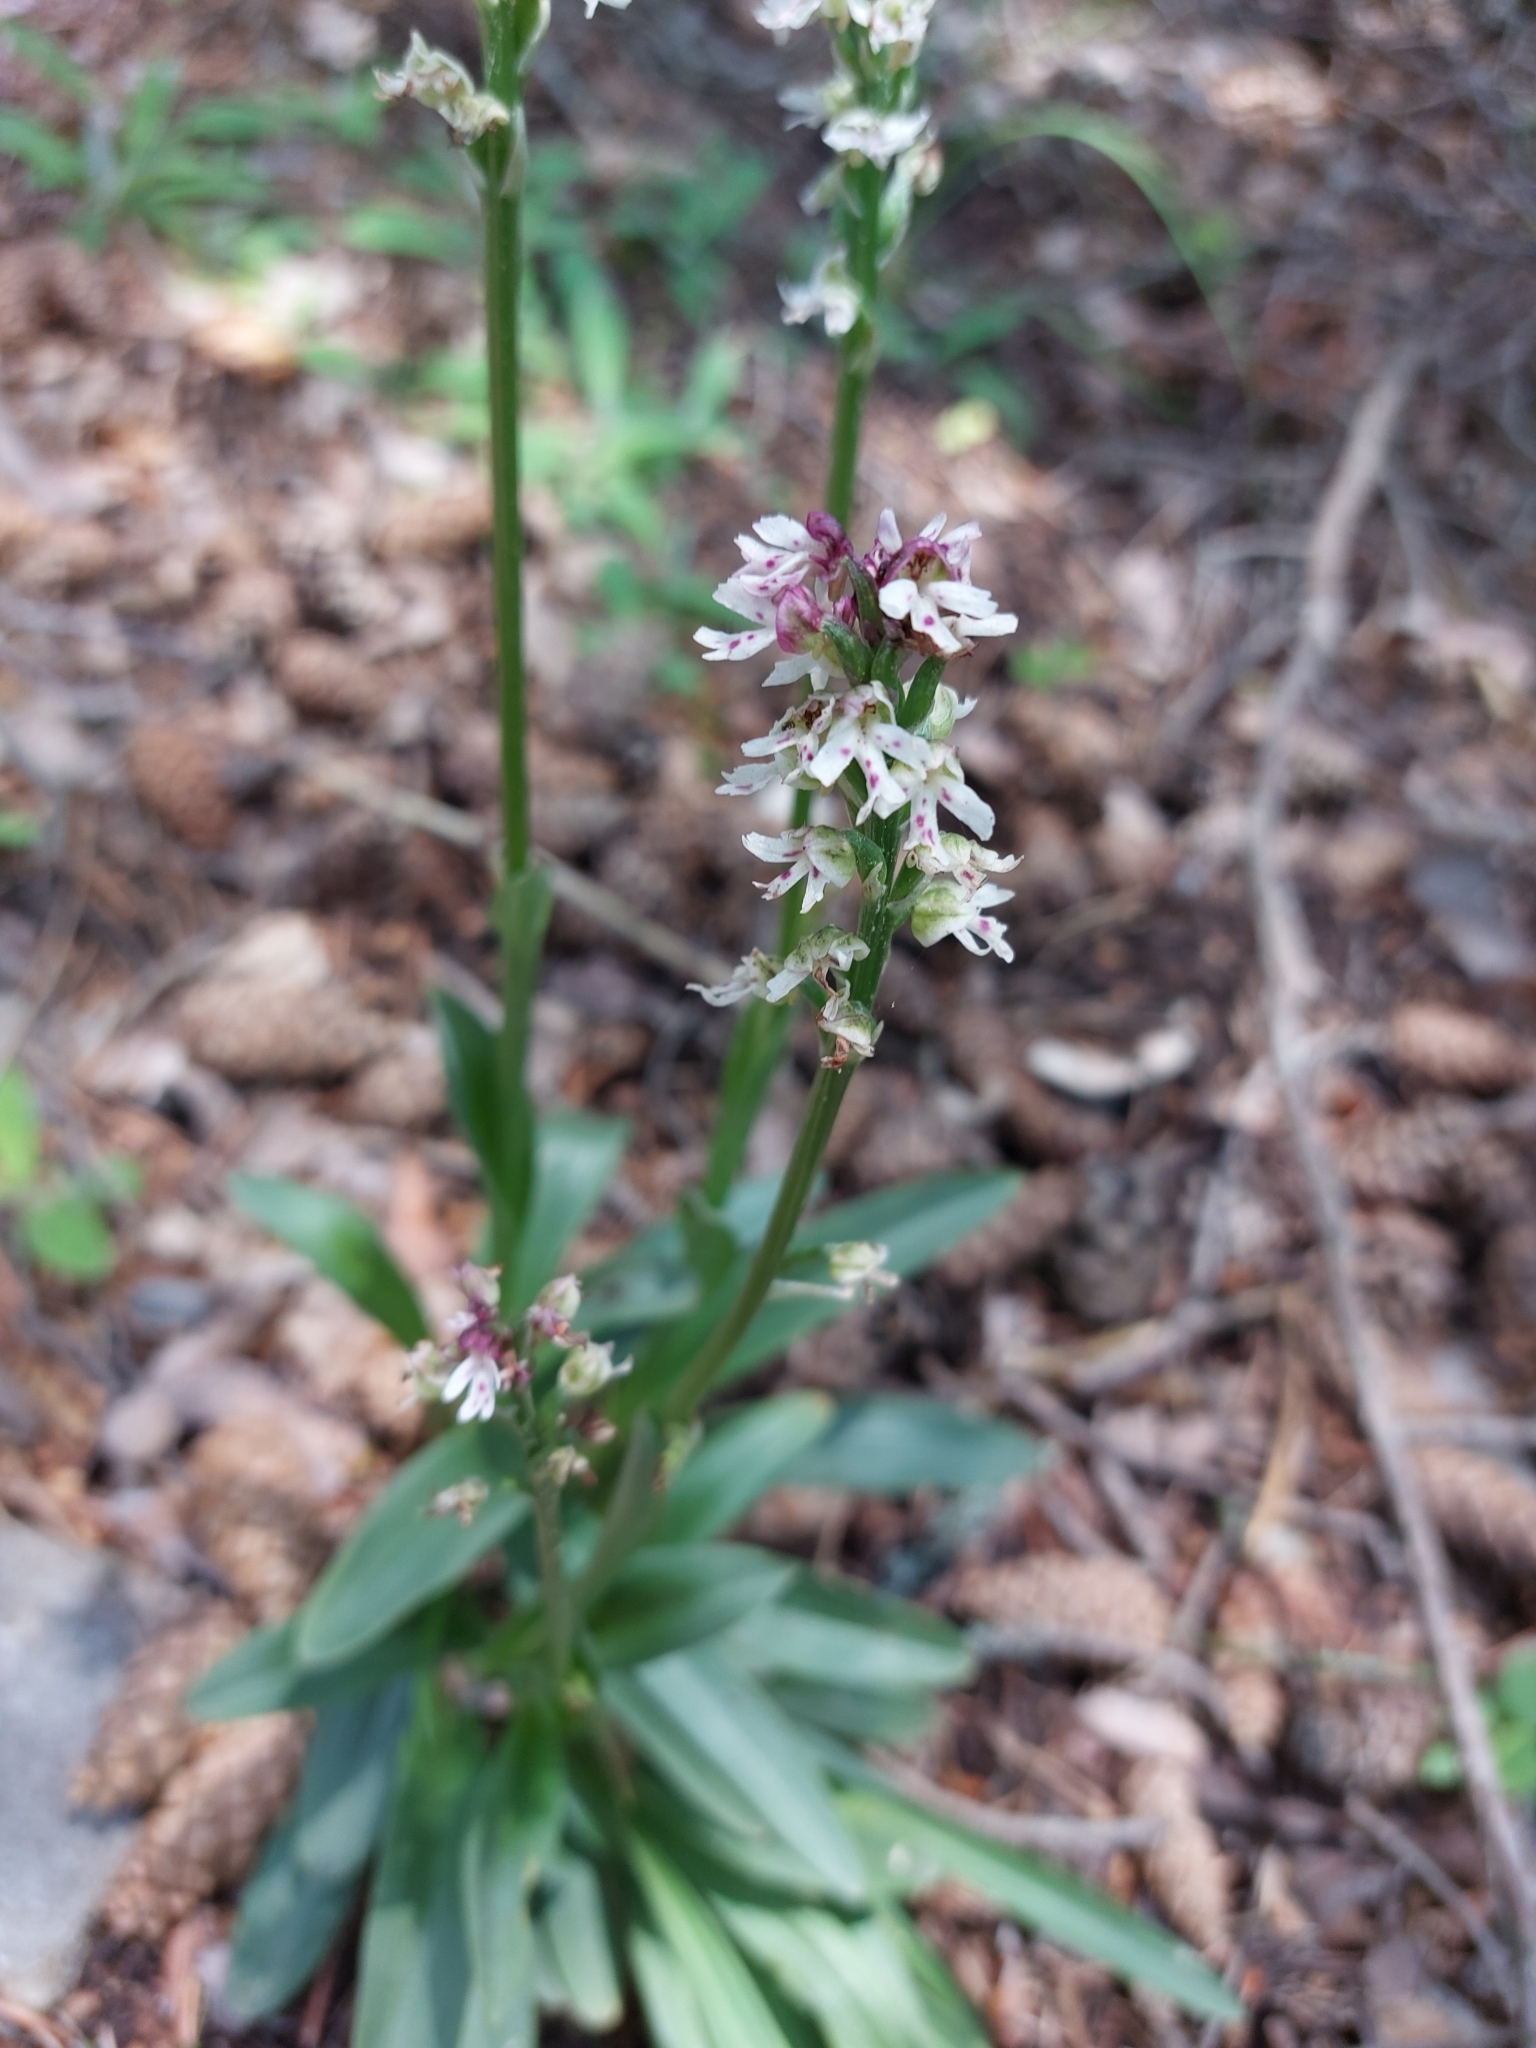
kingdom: Plantae
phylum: Tracheophyta
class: Liliopsida
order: Asparagales
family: Orchidaceae
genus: Neotinea
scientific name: Neotinea ustulata
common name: Burnt orchid
